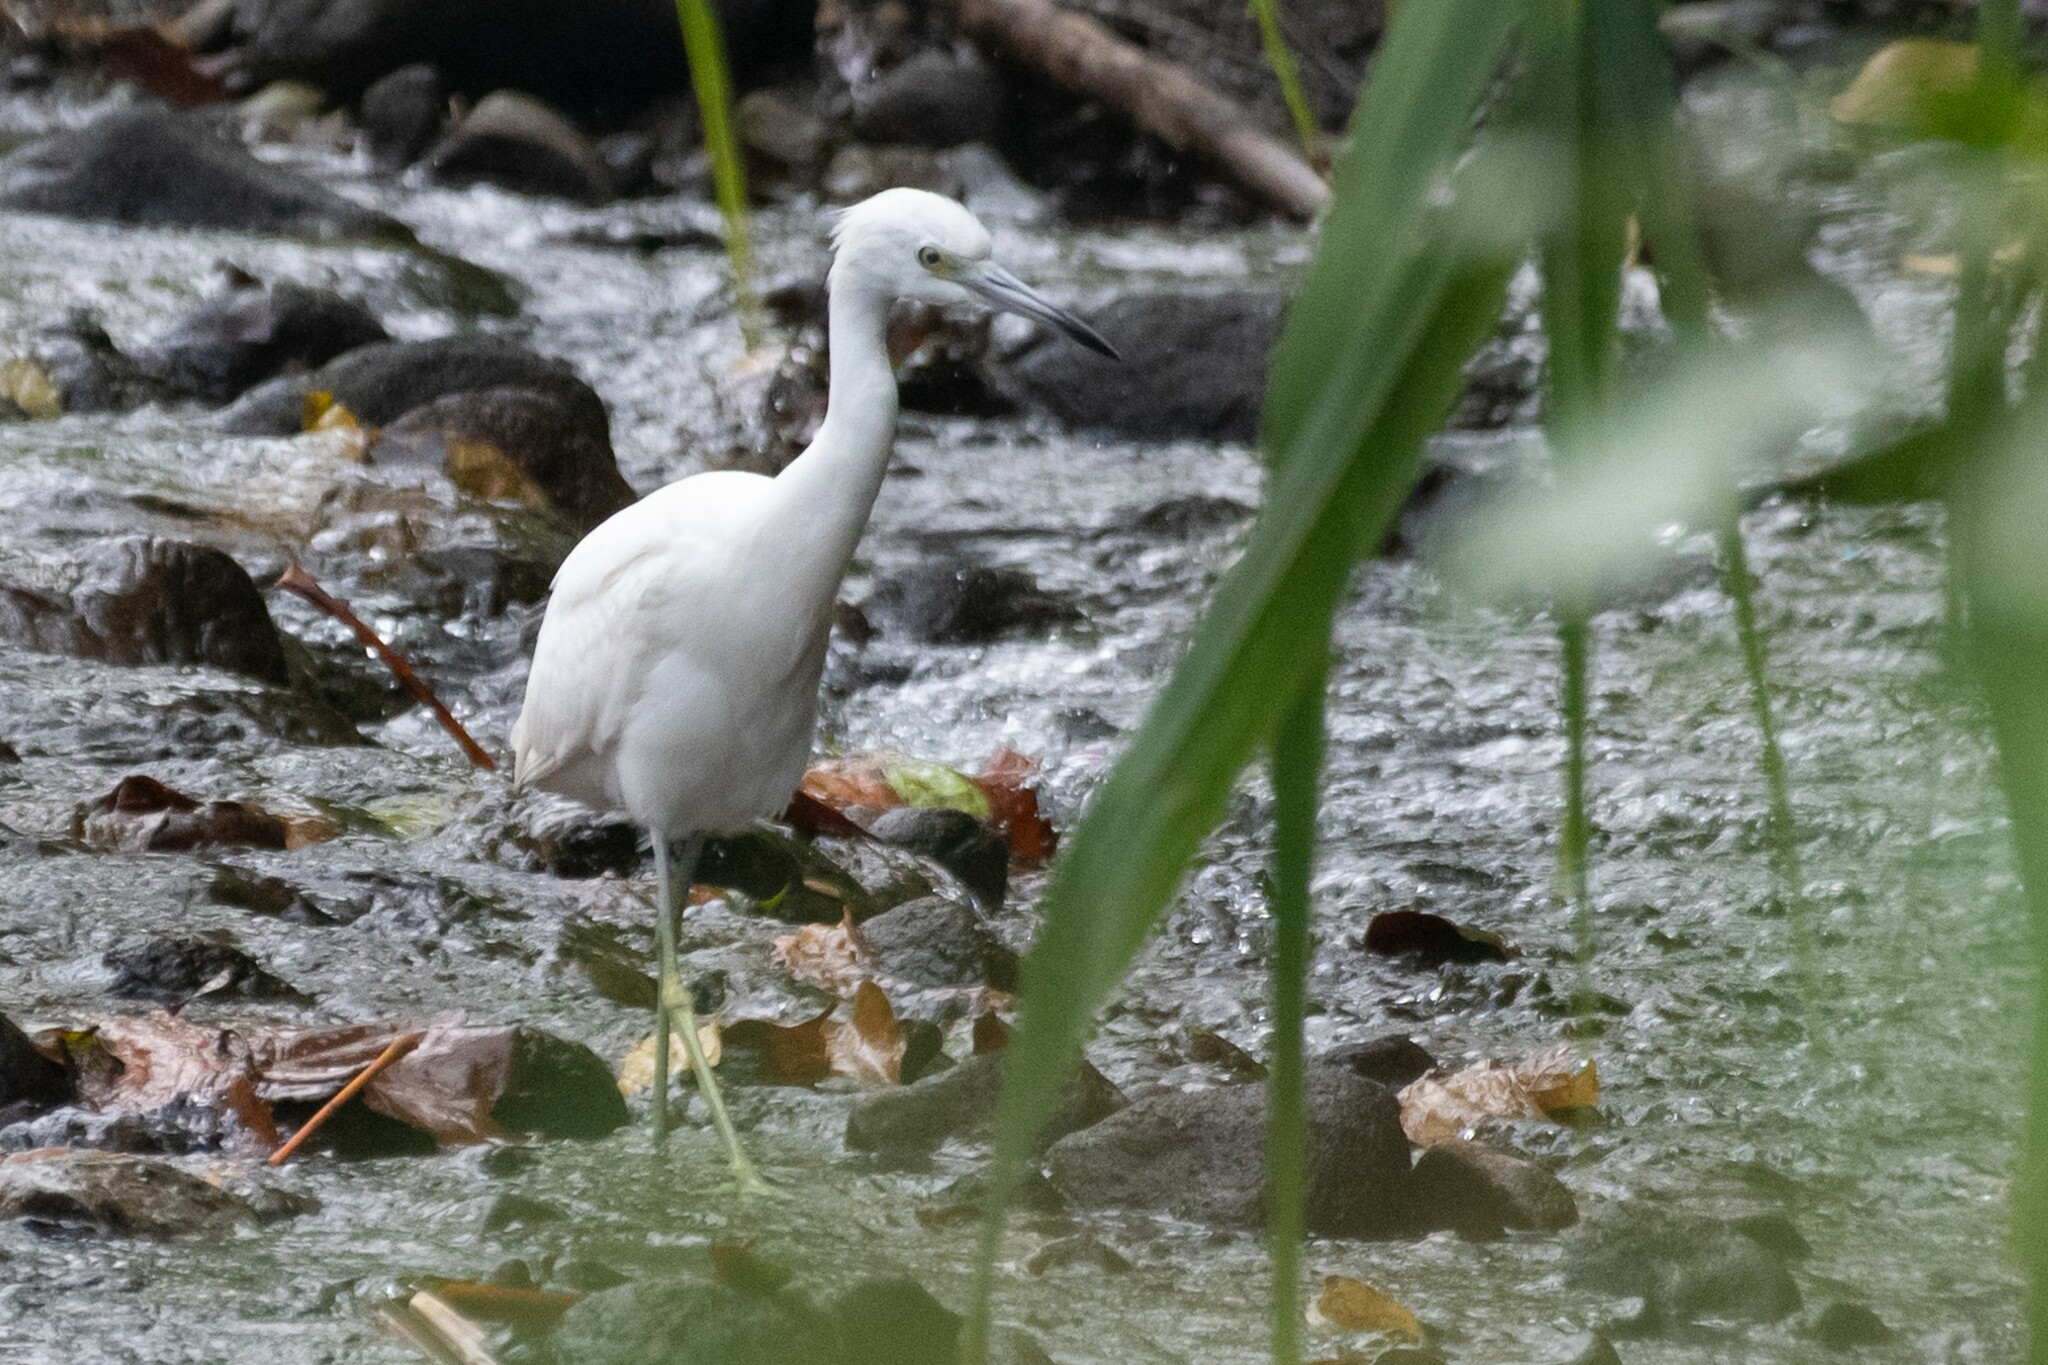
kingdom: Animalia
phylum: Chordata
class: Aves
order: Pelecaniformes
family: Ardeidae
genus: Egretta
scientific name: Egretta caerulea
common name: Little blue heron
